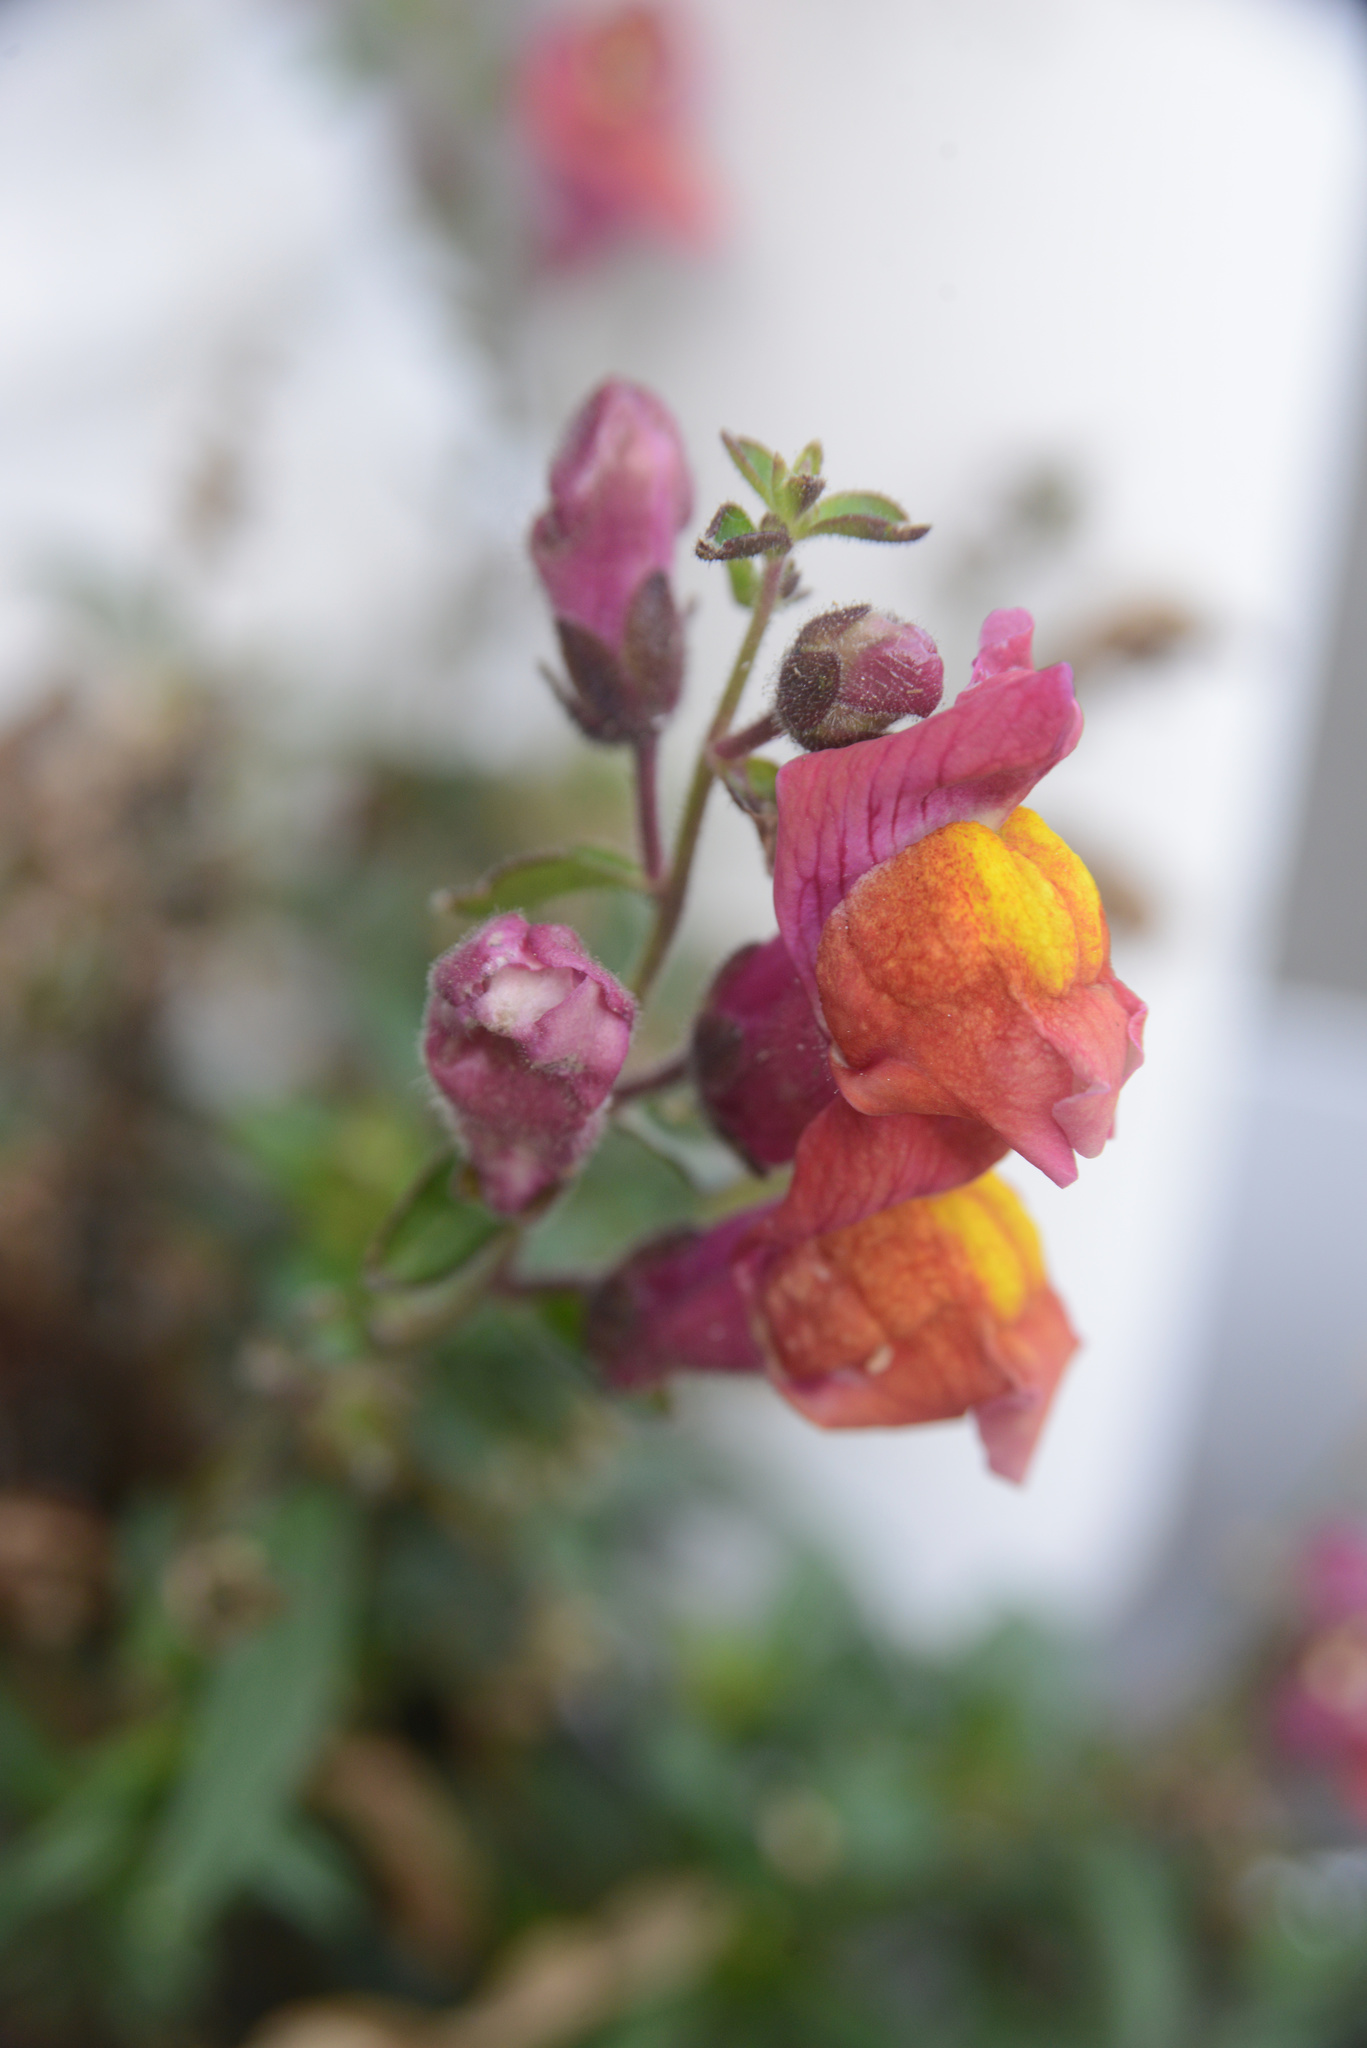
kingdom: Plantae
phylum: Tracheophyta
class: Magnoliopsida
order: Lamiales
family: Plantaginaceae
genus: Antirrhinum
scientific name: Antirrhinum majus
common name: Snapdragon
